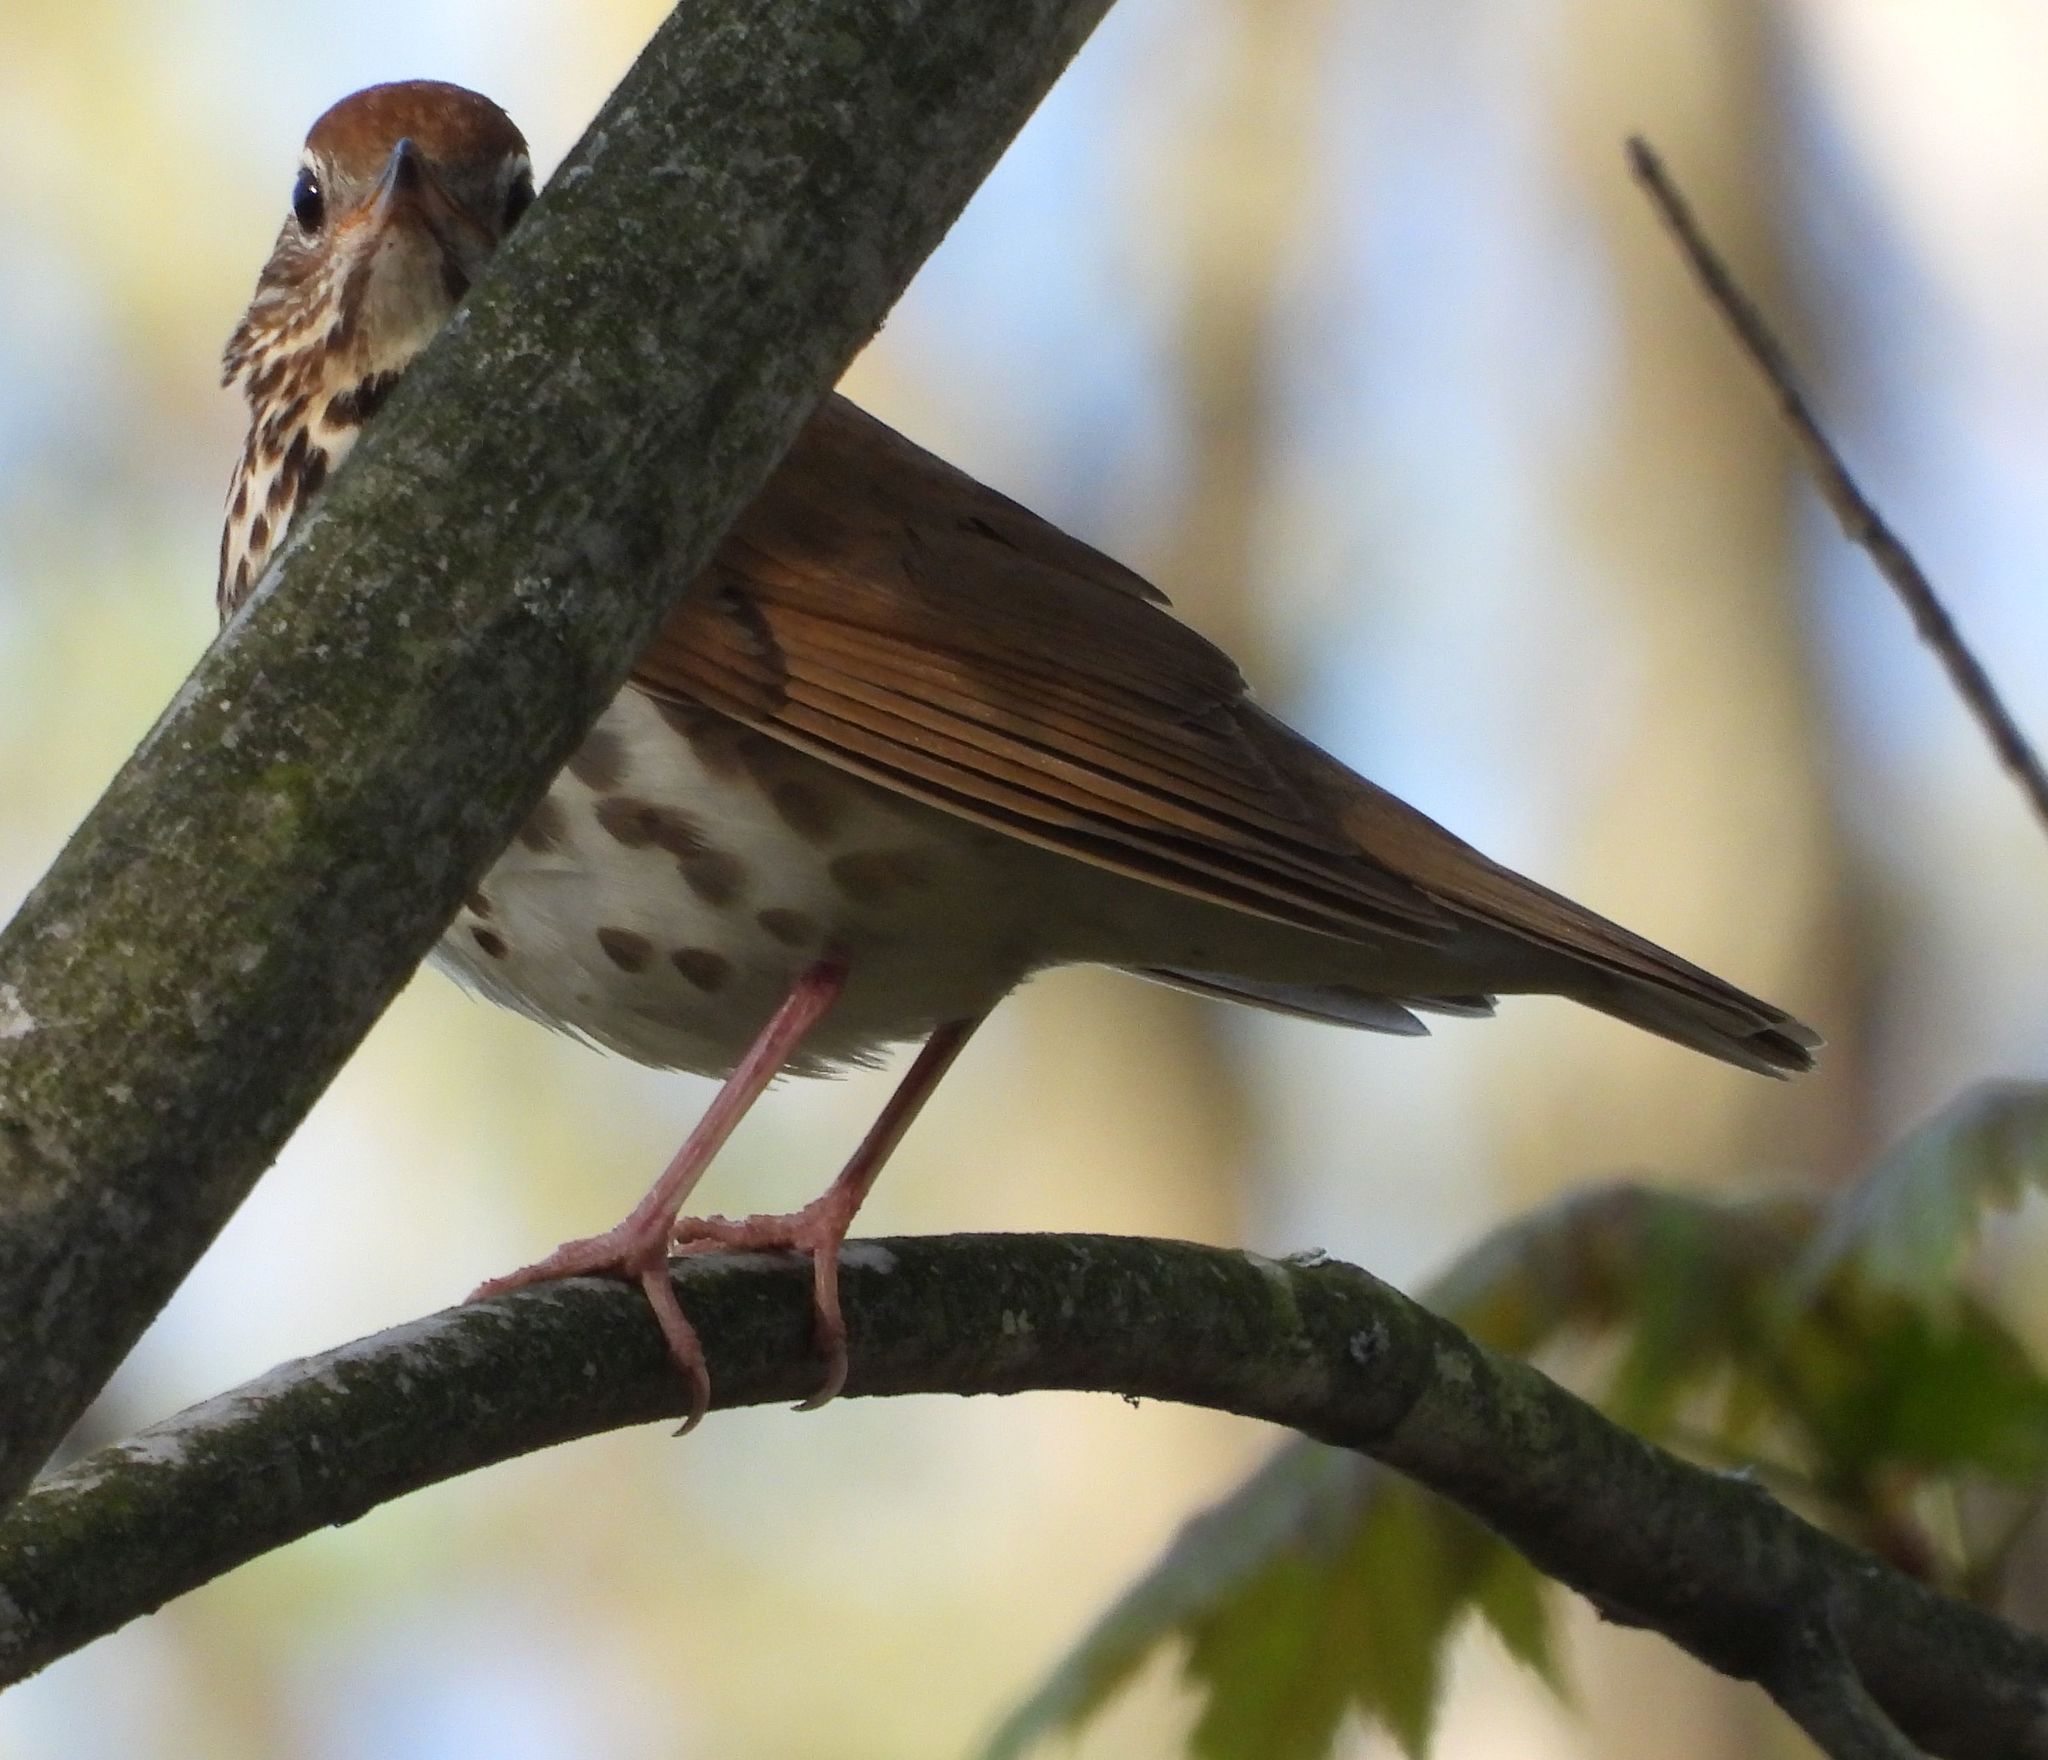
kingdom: Animalia
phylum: Chordata
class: Aves
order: Passeriformes
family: Turdidae
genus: Hylocichla
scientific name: Hylocichla mustelina
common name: Wood thrush
